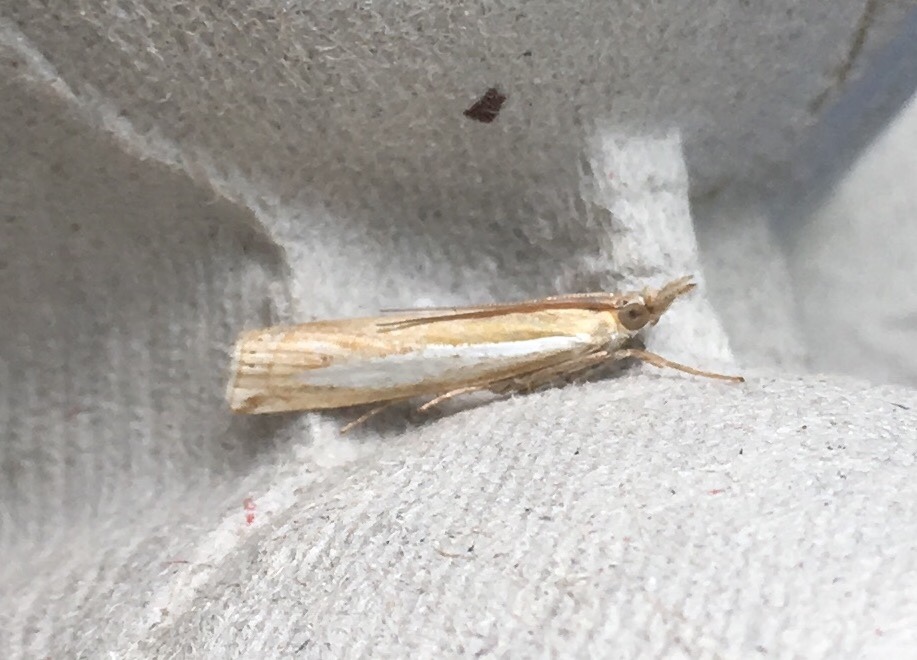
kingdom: Animalia
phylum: Arthropoda
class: Insecta
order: Lepidoptera
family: Crambidae
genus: Crambus
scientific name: Crambus praefectellus
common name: Common grass-veneer
